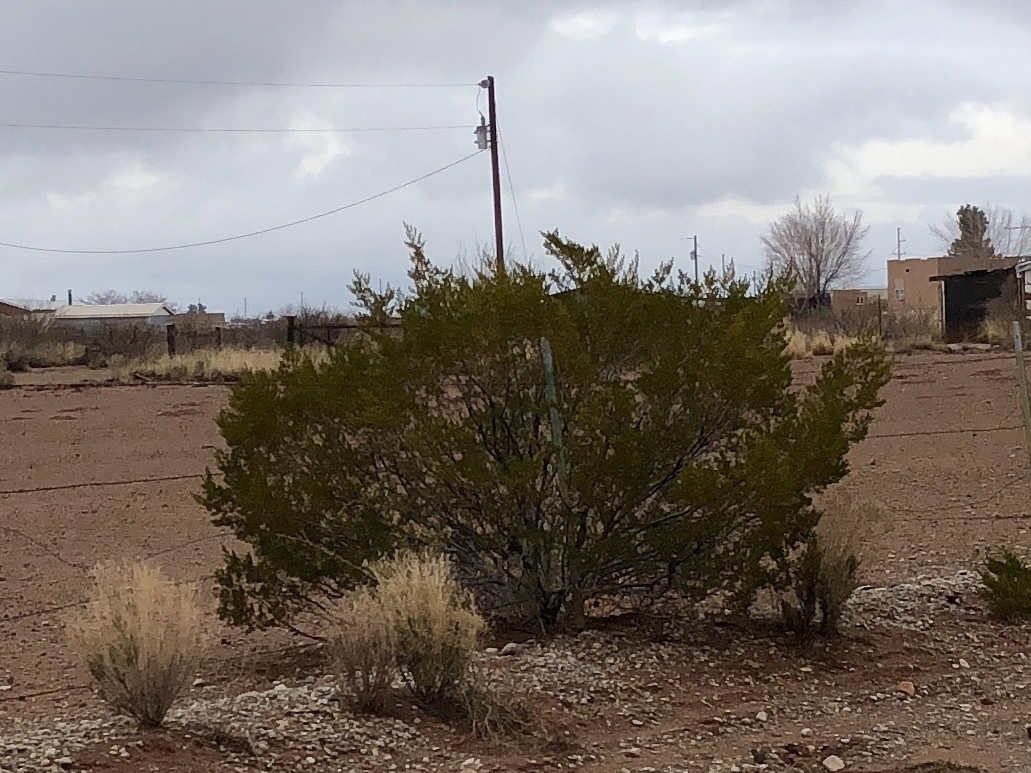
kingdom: Plantae
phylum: Tracheophyta
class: Magnoliopsida
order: Zygophyllales
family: Zygophyllaceae
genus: Larrea
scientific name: Larrea tridentata
